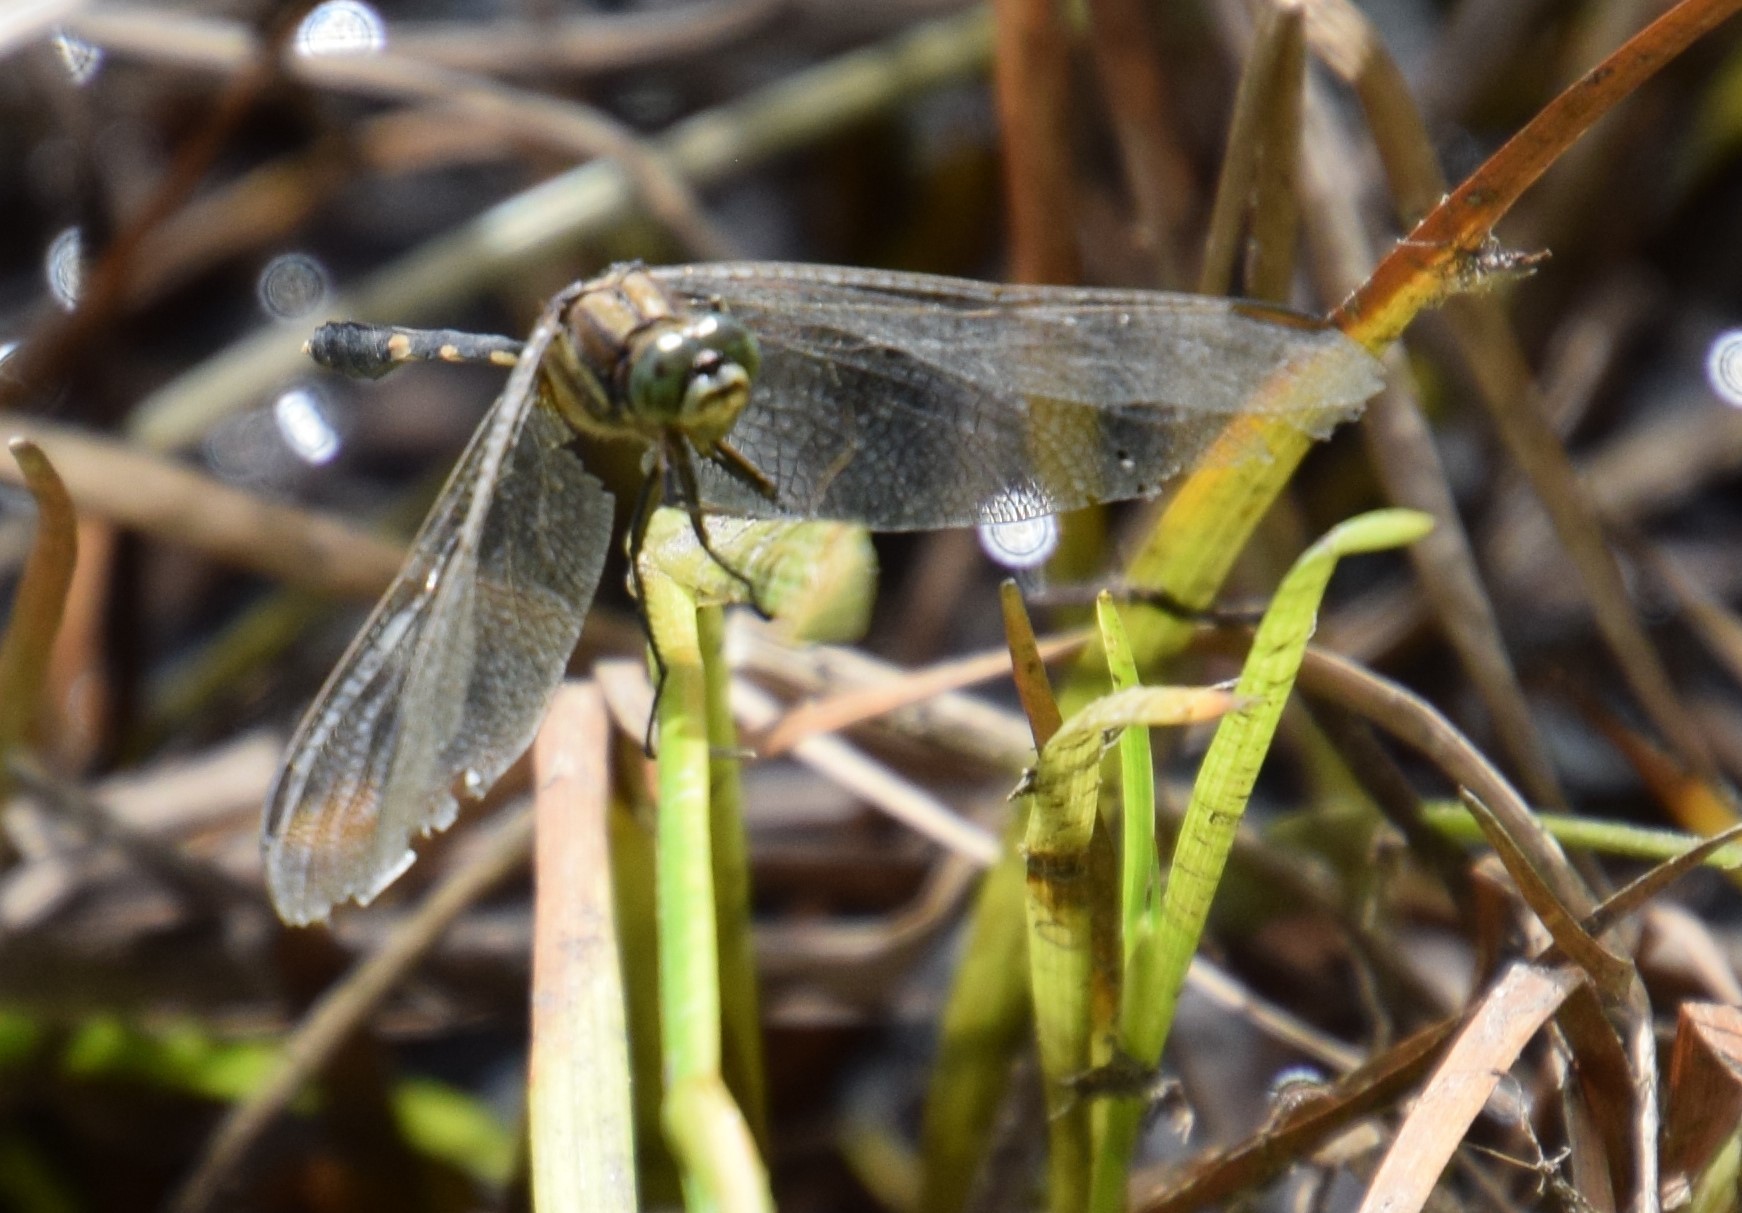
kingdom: Animalia
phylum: Arthropoda
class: Insecta
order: Odonata
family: Libellulidae
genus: Orthetrum
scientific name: Orthetrum sabina
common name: Slender skimmer
